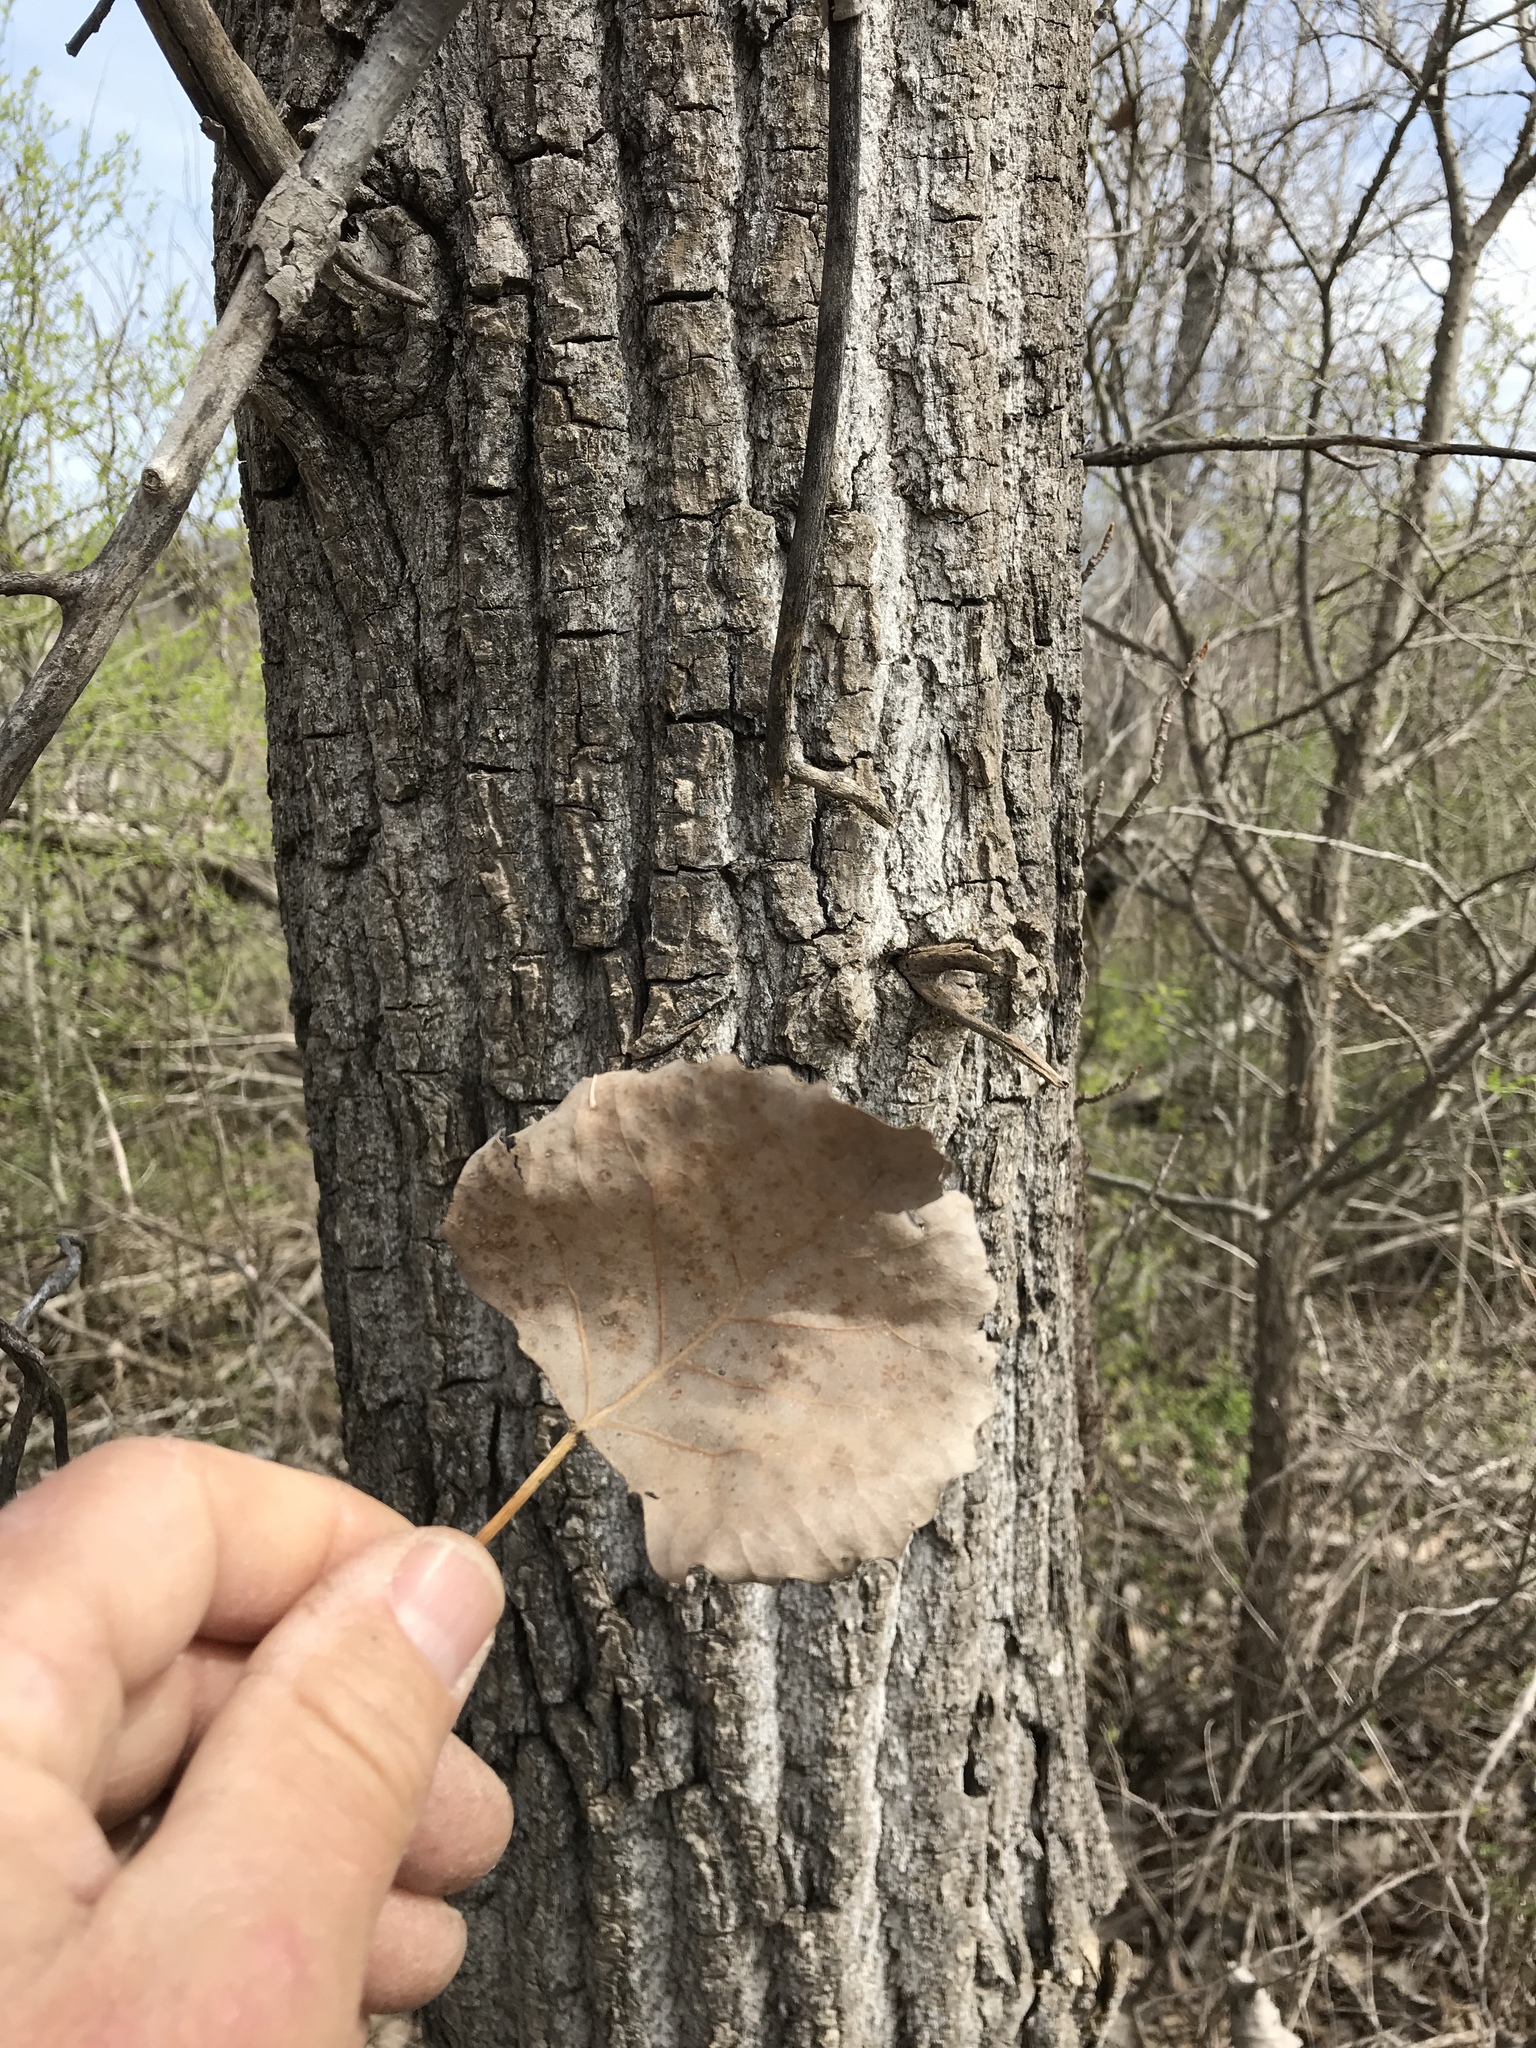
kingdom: Plantae
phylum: Tracheophyta
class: Magnoliopsida
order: Malpighiales
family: Salicaceae
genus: Populus
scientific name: Populus deltoides
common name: Eastern cottonwood
